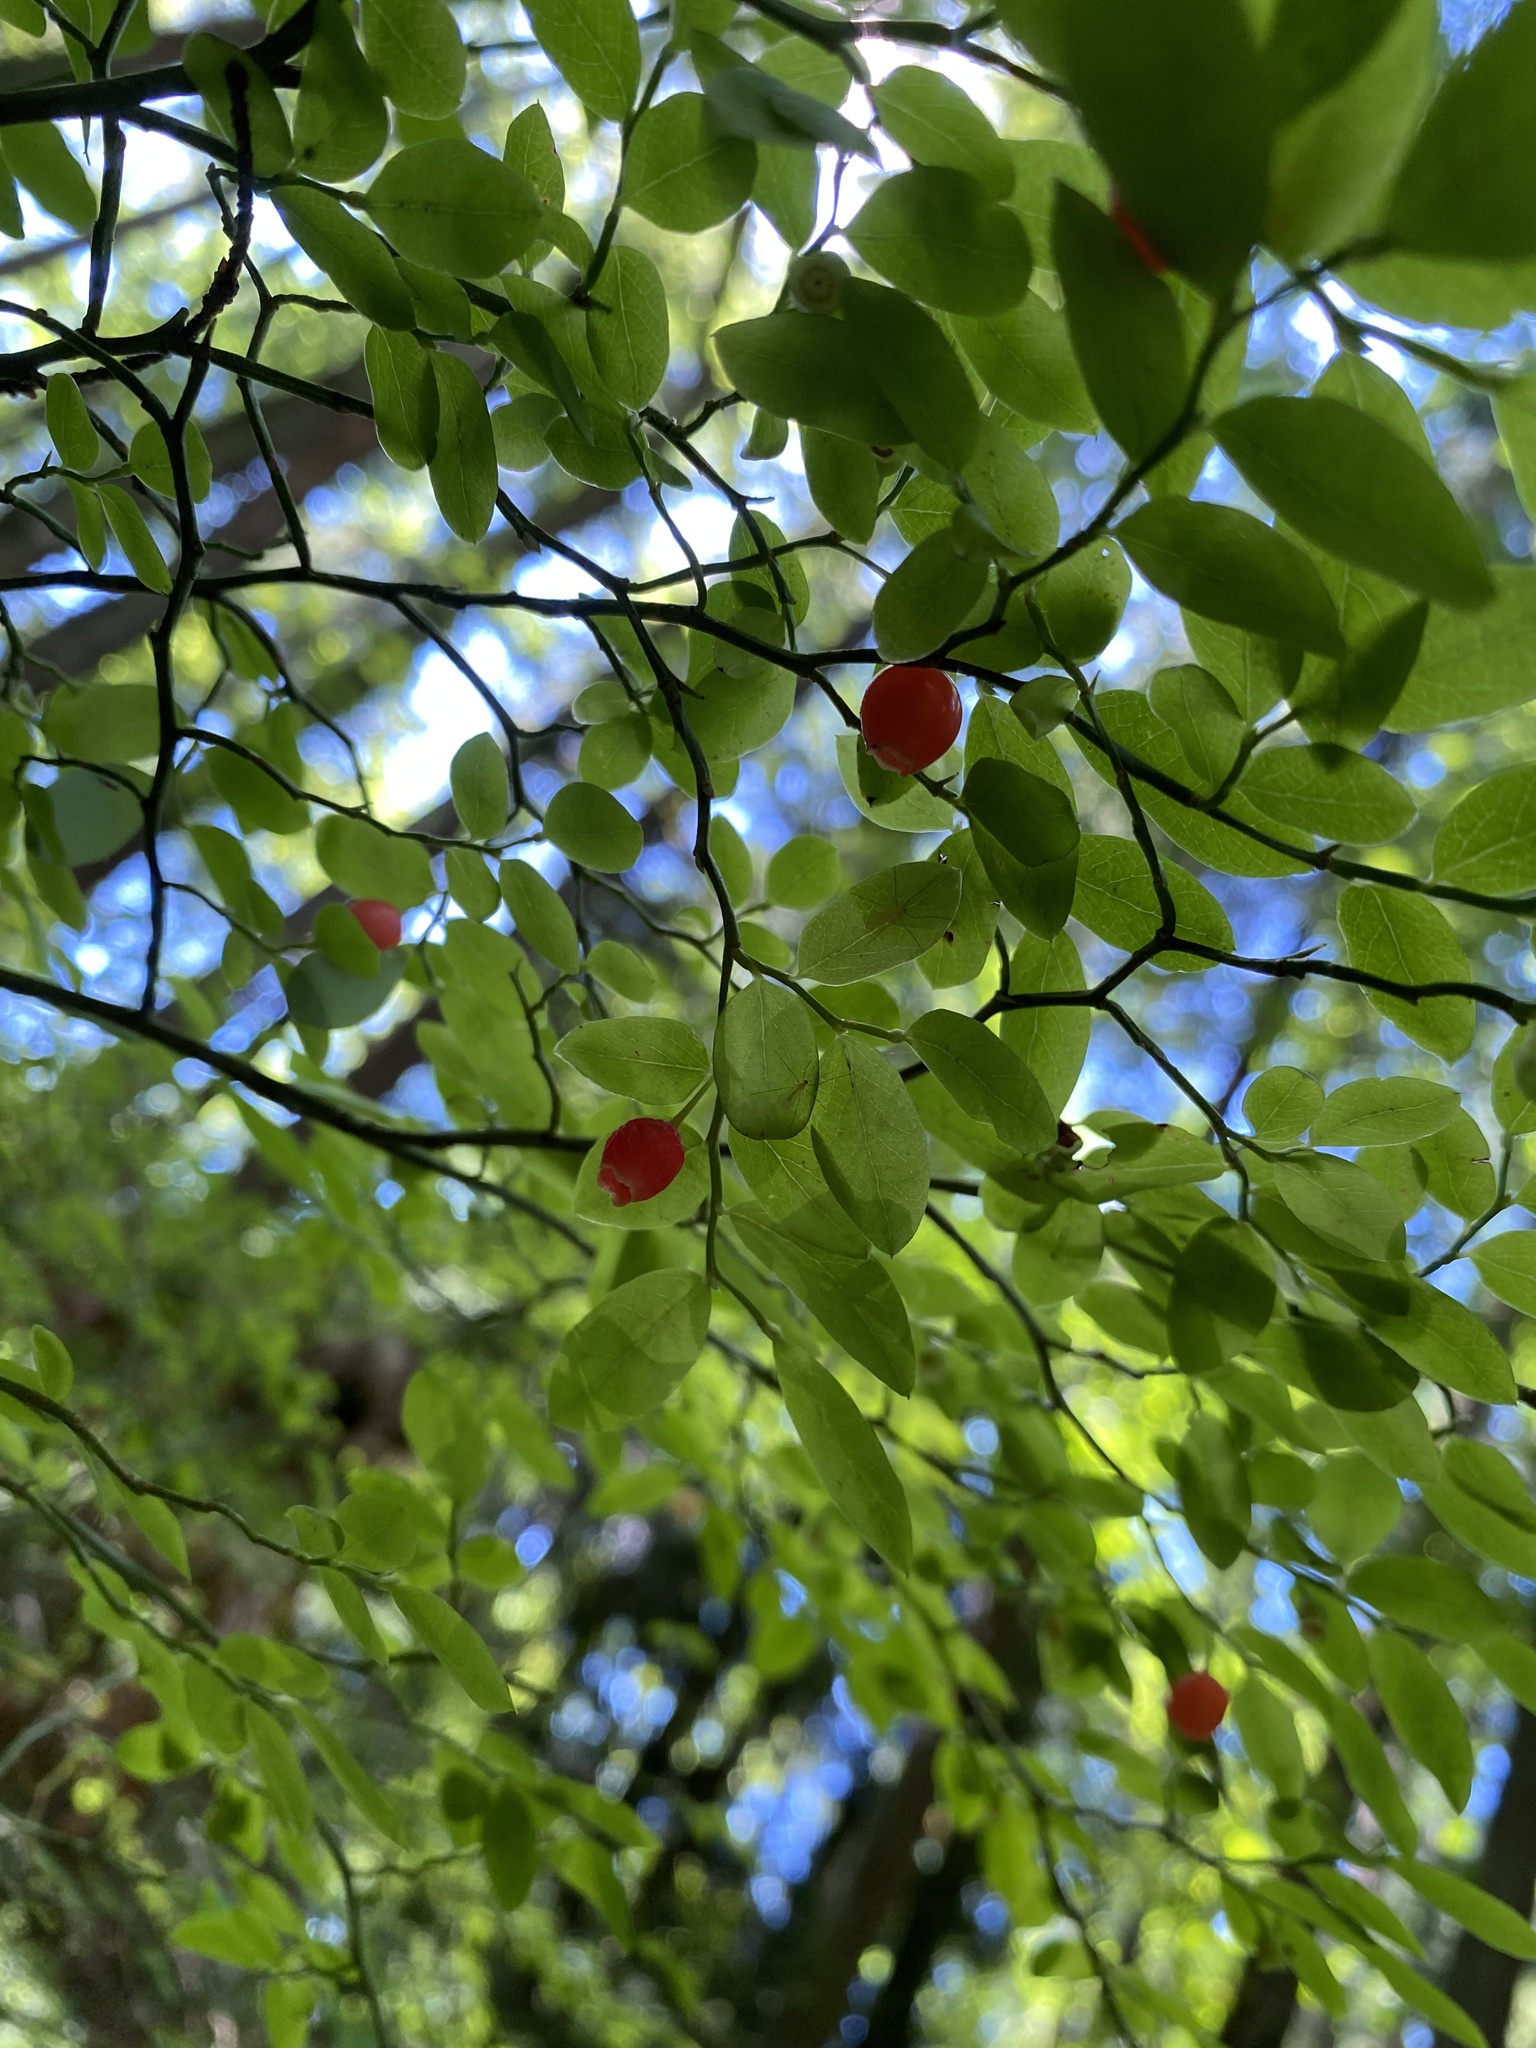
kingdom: Plantae
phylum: Tracheophyta
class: Magnoliopsida
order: Ericales
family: Ericaceae
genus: Vaccinium
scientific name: Vaccinium parvifolium
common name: Red-huckleberry
